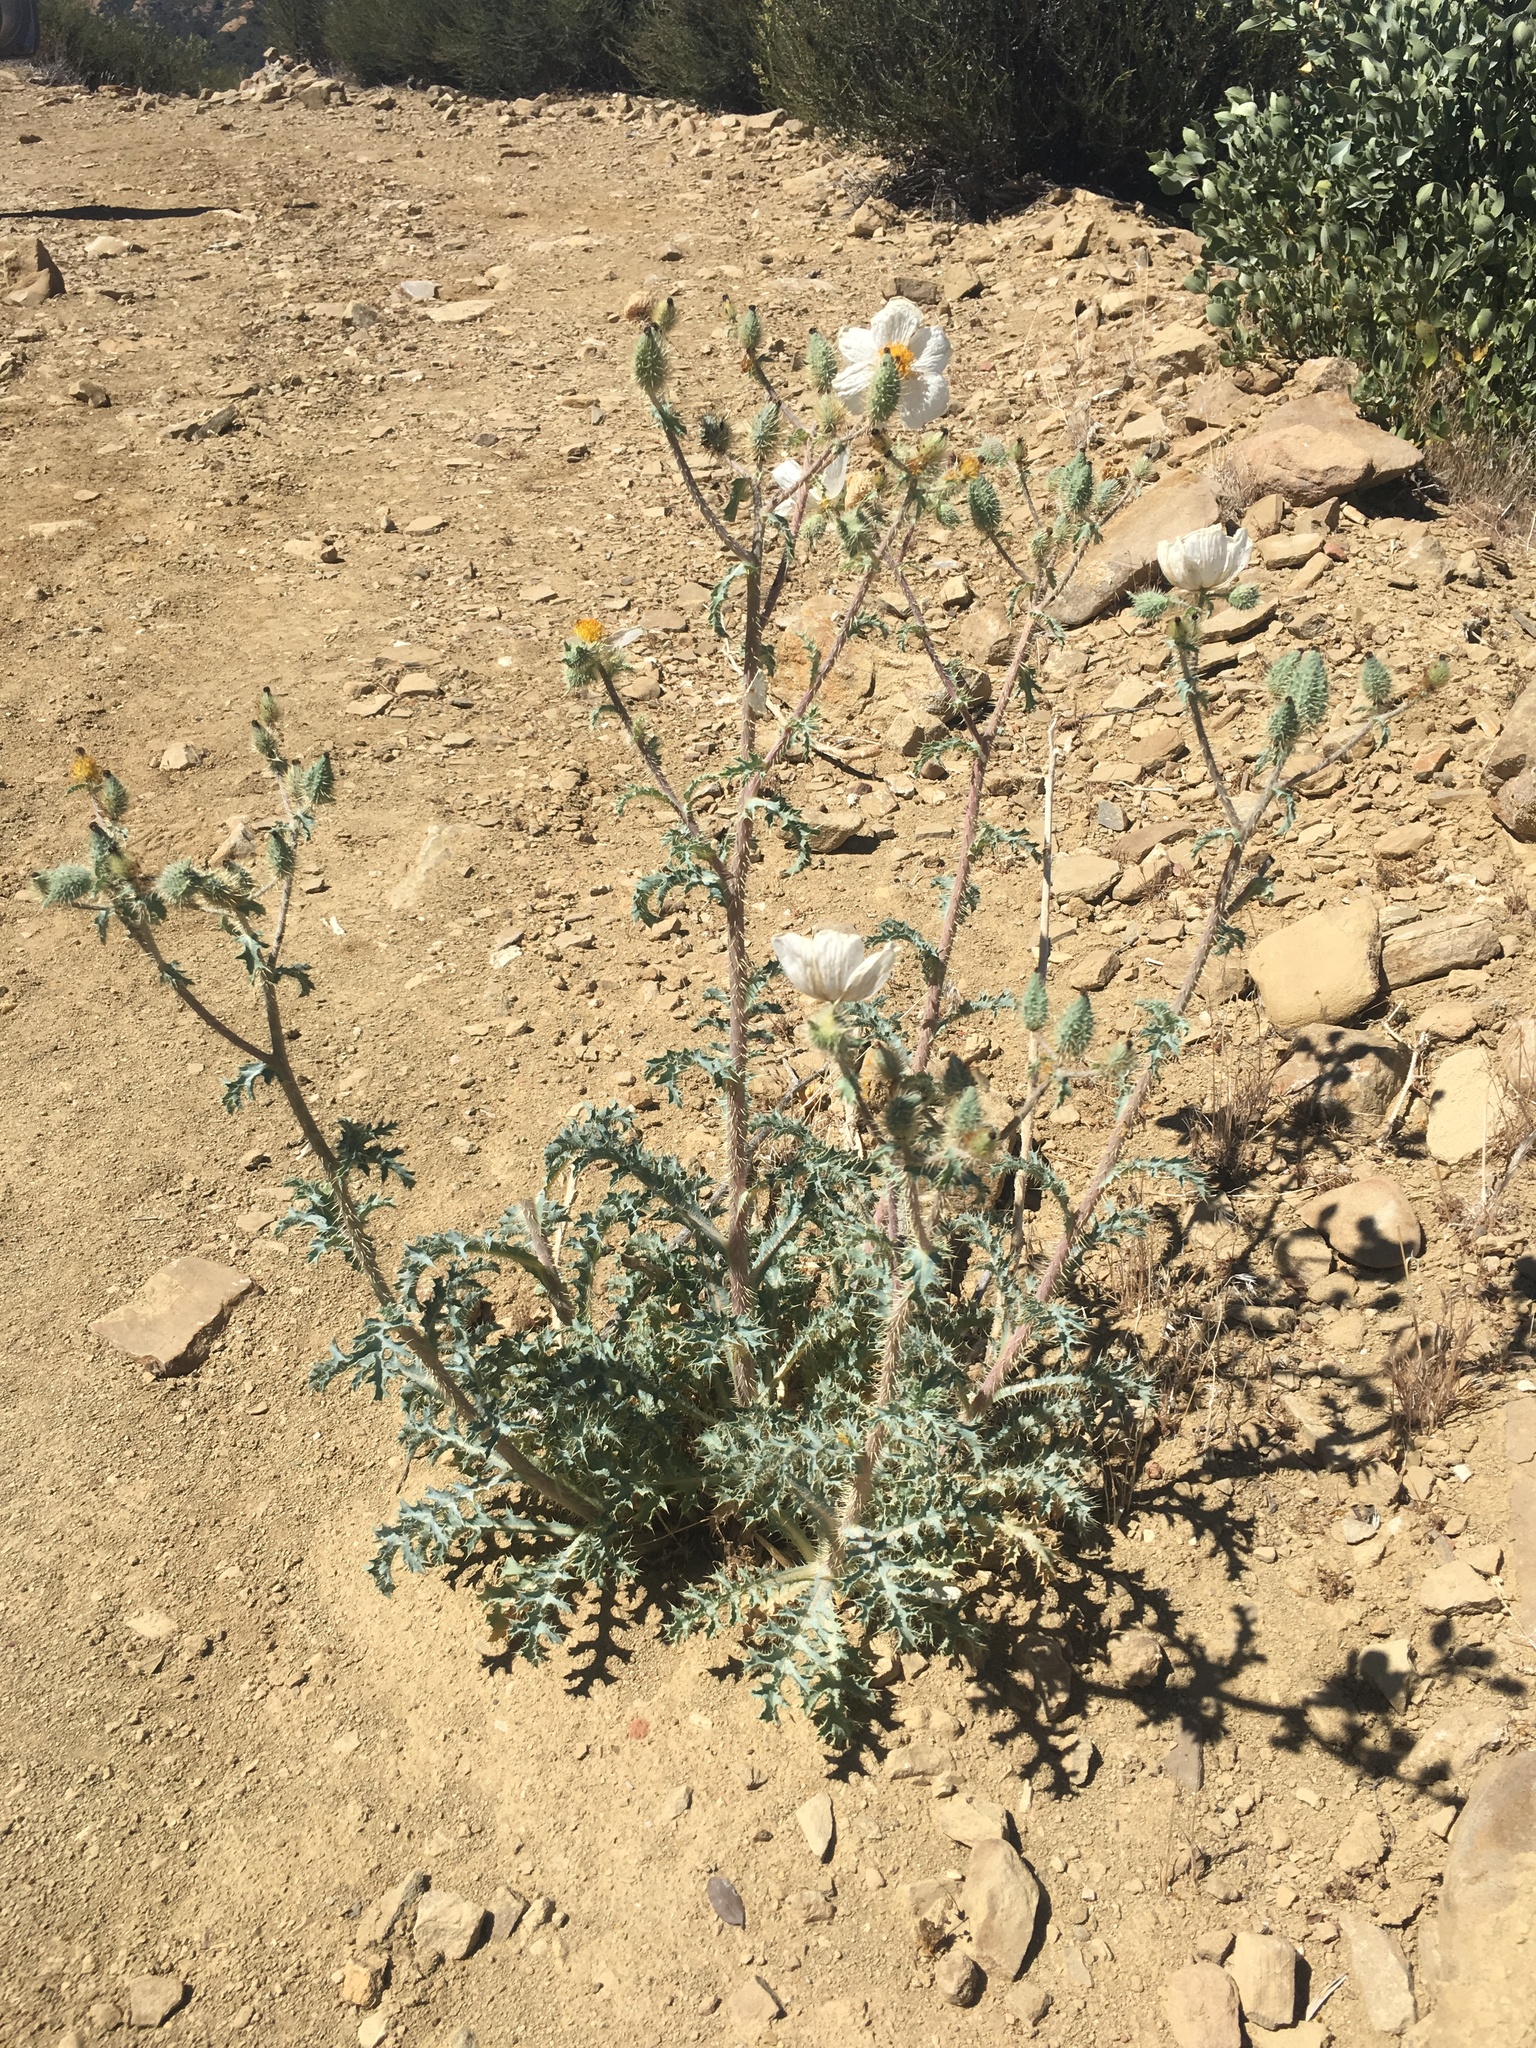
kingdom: Plantae
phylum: Tracheophyta
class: Magnoliopsida
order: Ranunculales
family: Papaveraceae
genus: Argemone
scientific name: Argemone munita
